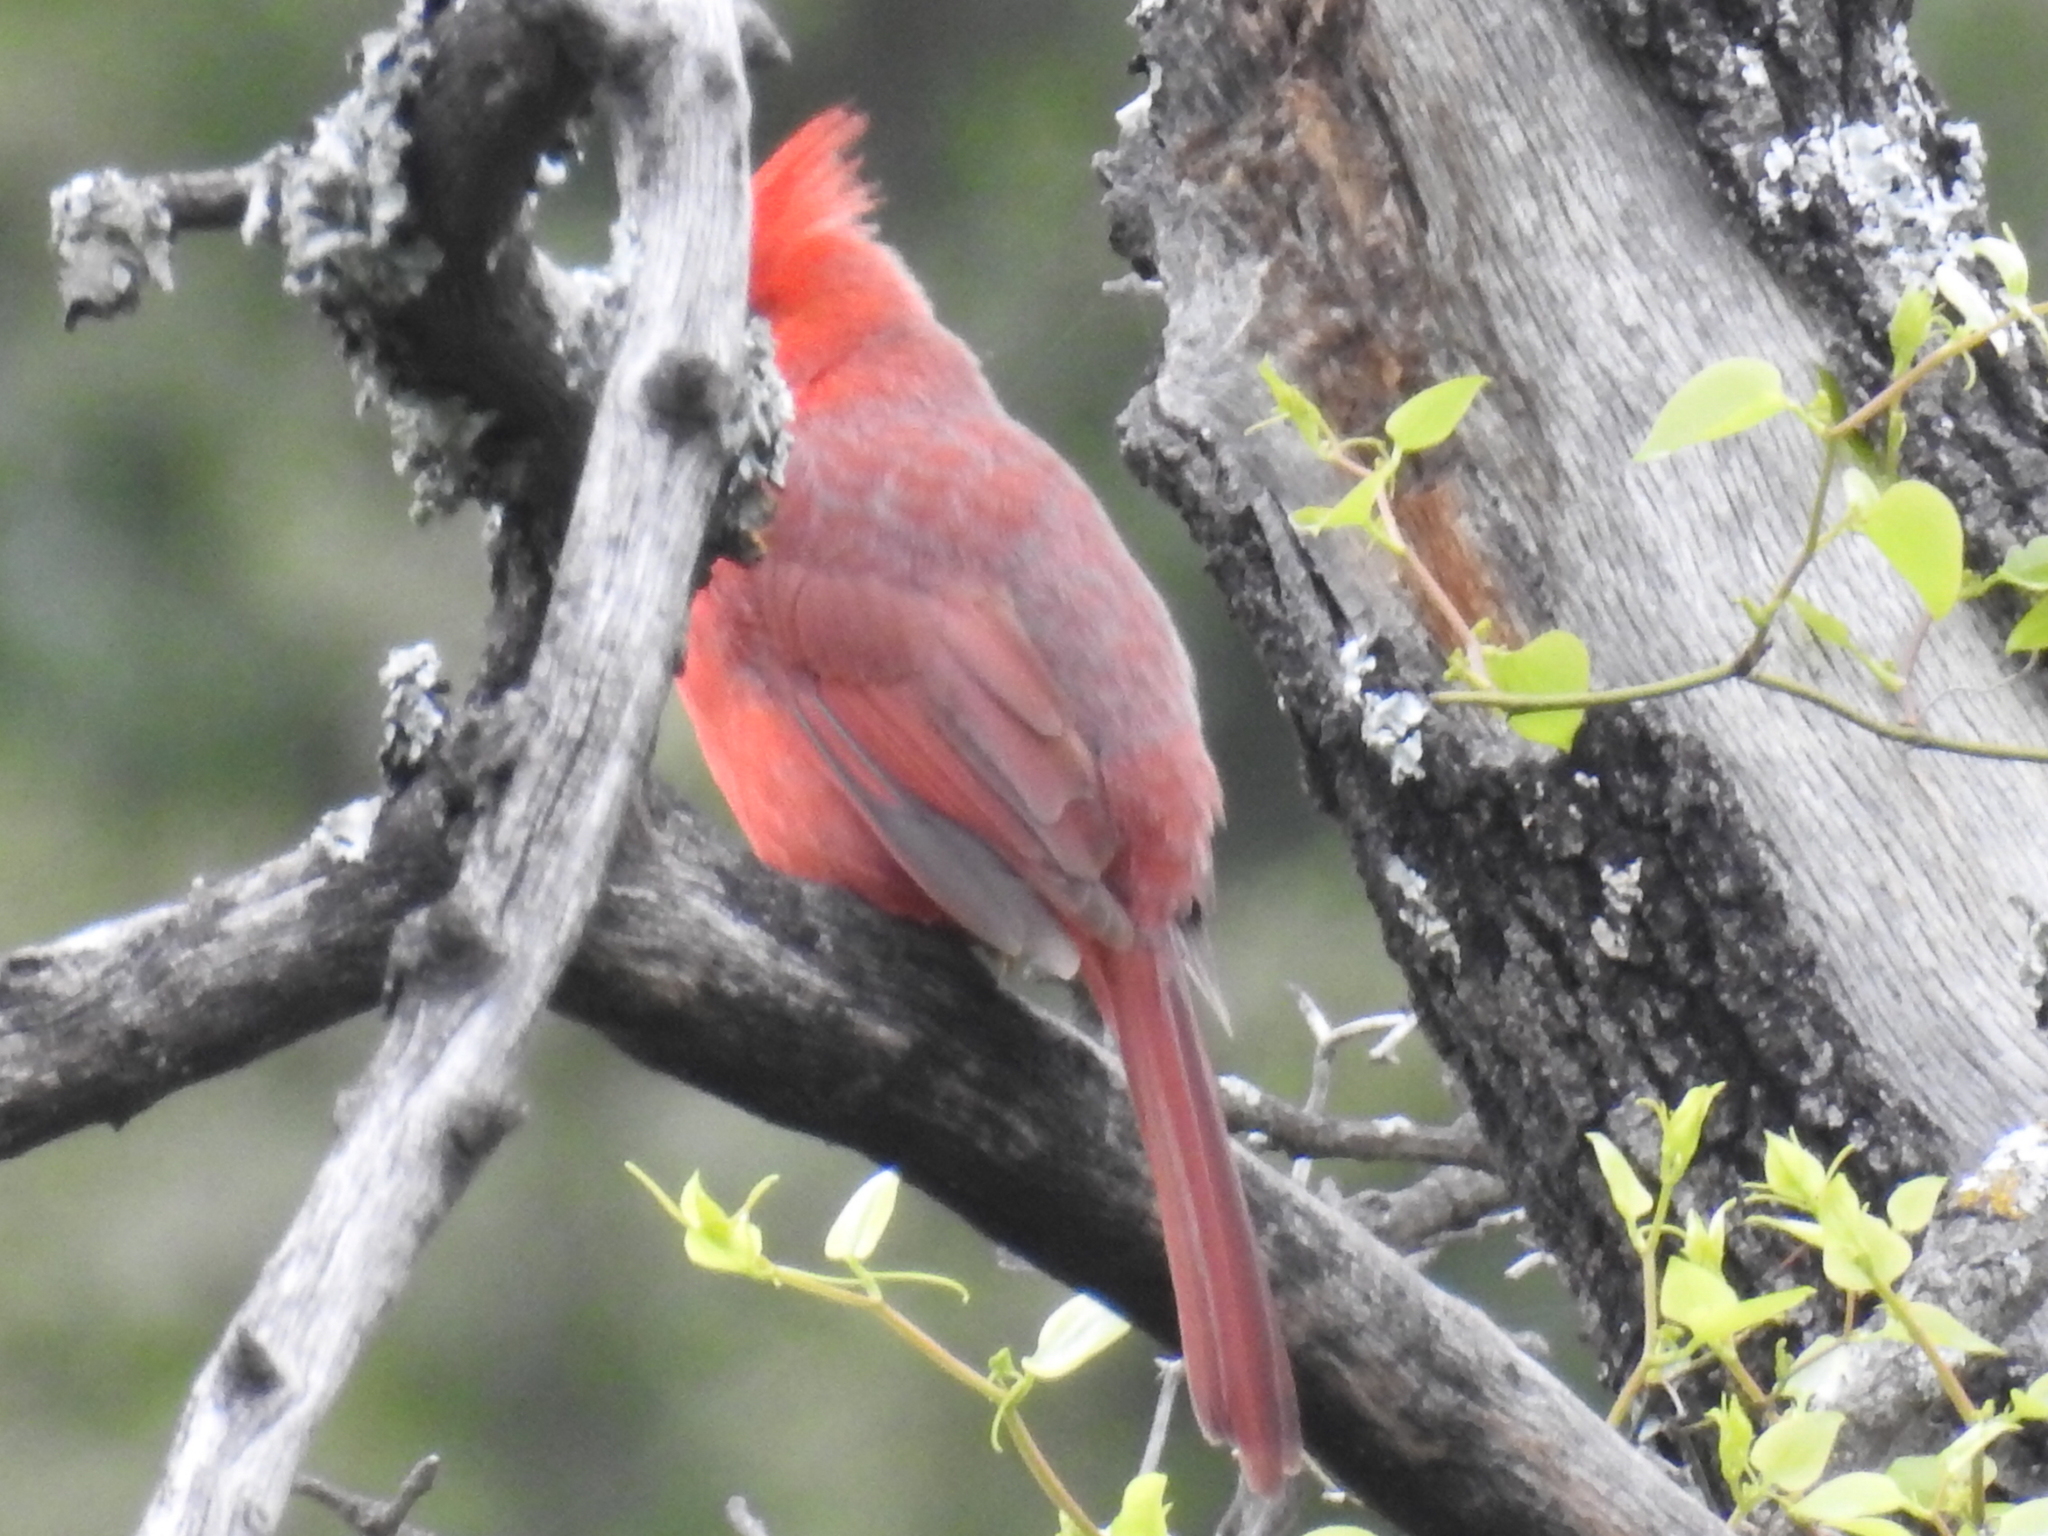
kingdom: Animalia
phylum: Chordata
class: Aves
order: Passeriformes
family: Cardinalidae
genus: Cardinalis
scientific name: Cardinalis cardinalis
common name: Northern cardinal
